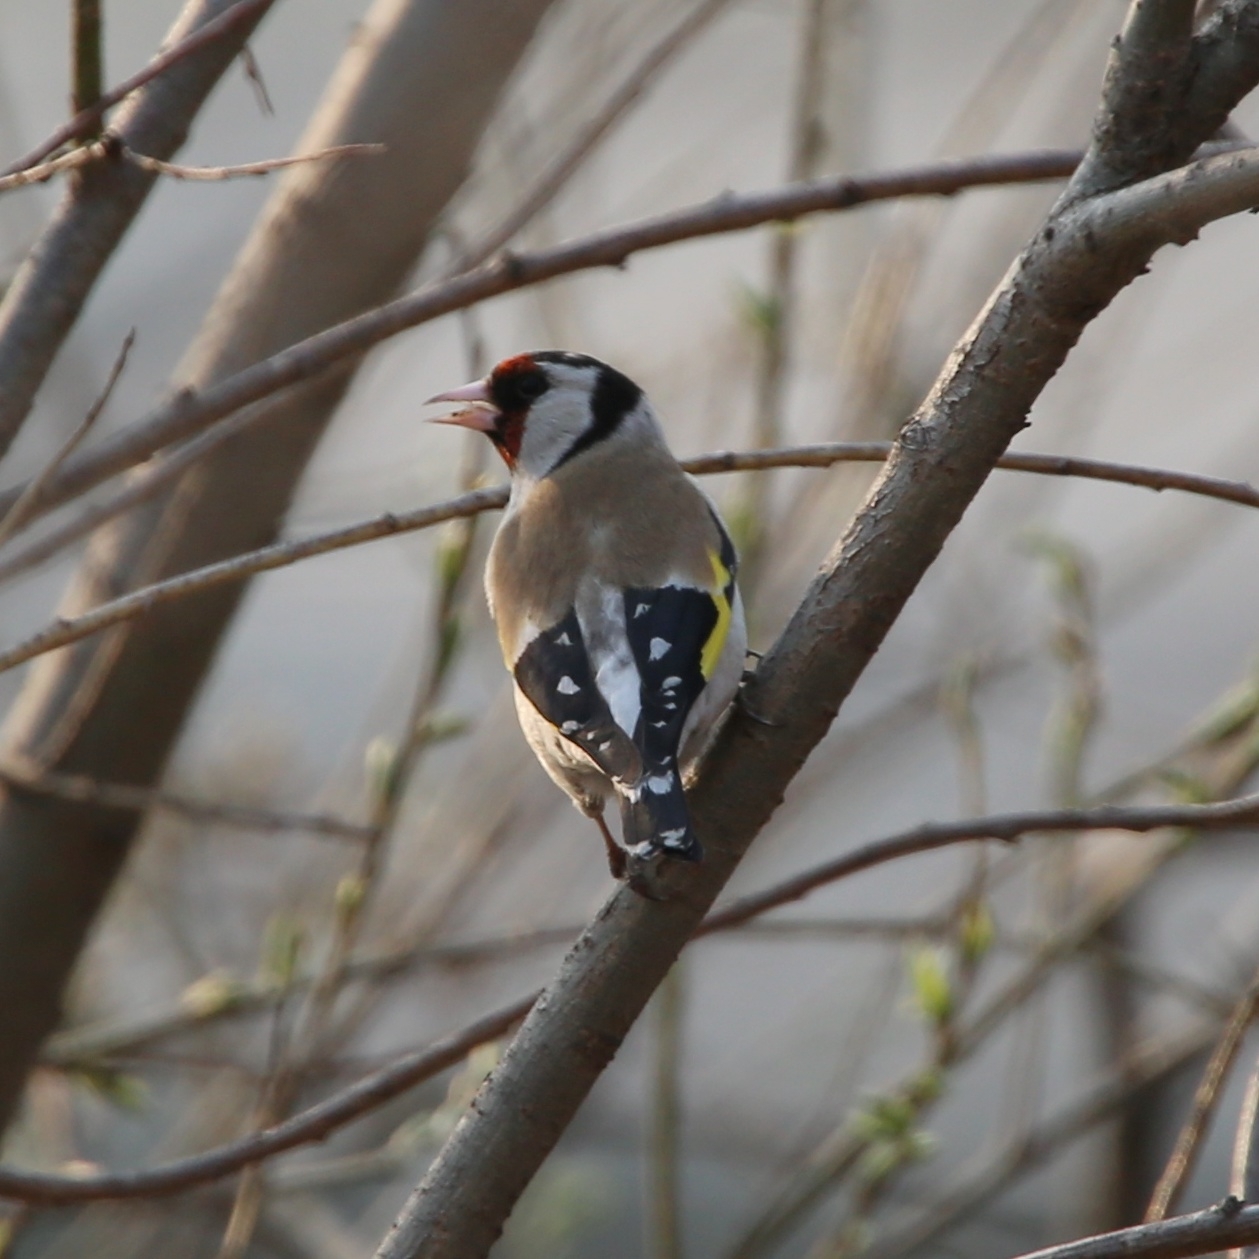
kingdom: Animalia
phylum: Chordata
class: Aves
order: Passeriformes
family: Fringillidae
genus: Carduelis
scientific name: Carduelis carduelis
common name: European goldfinch
